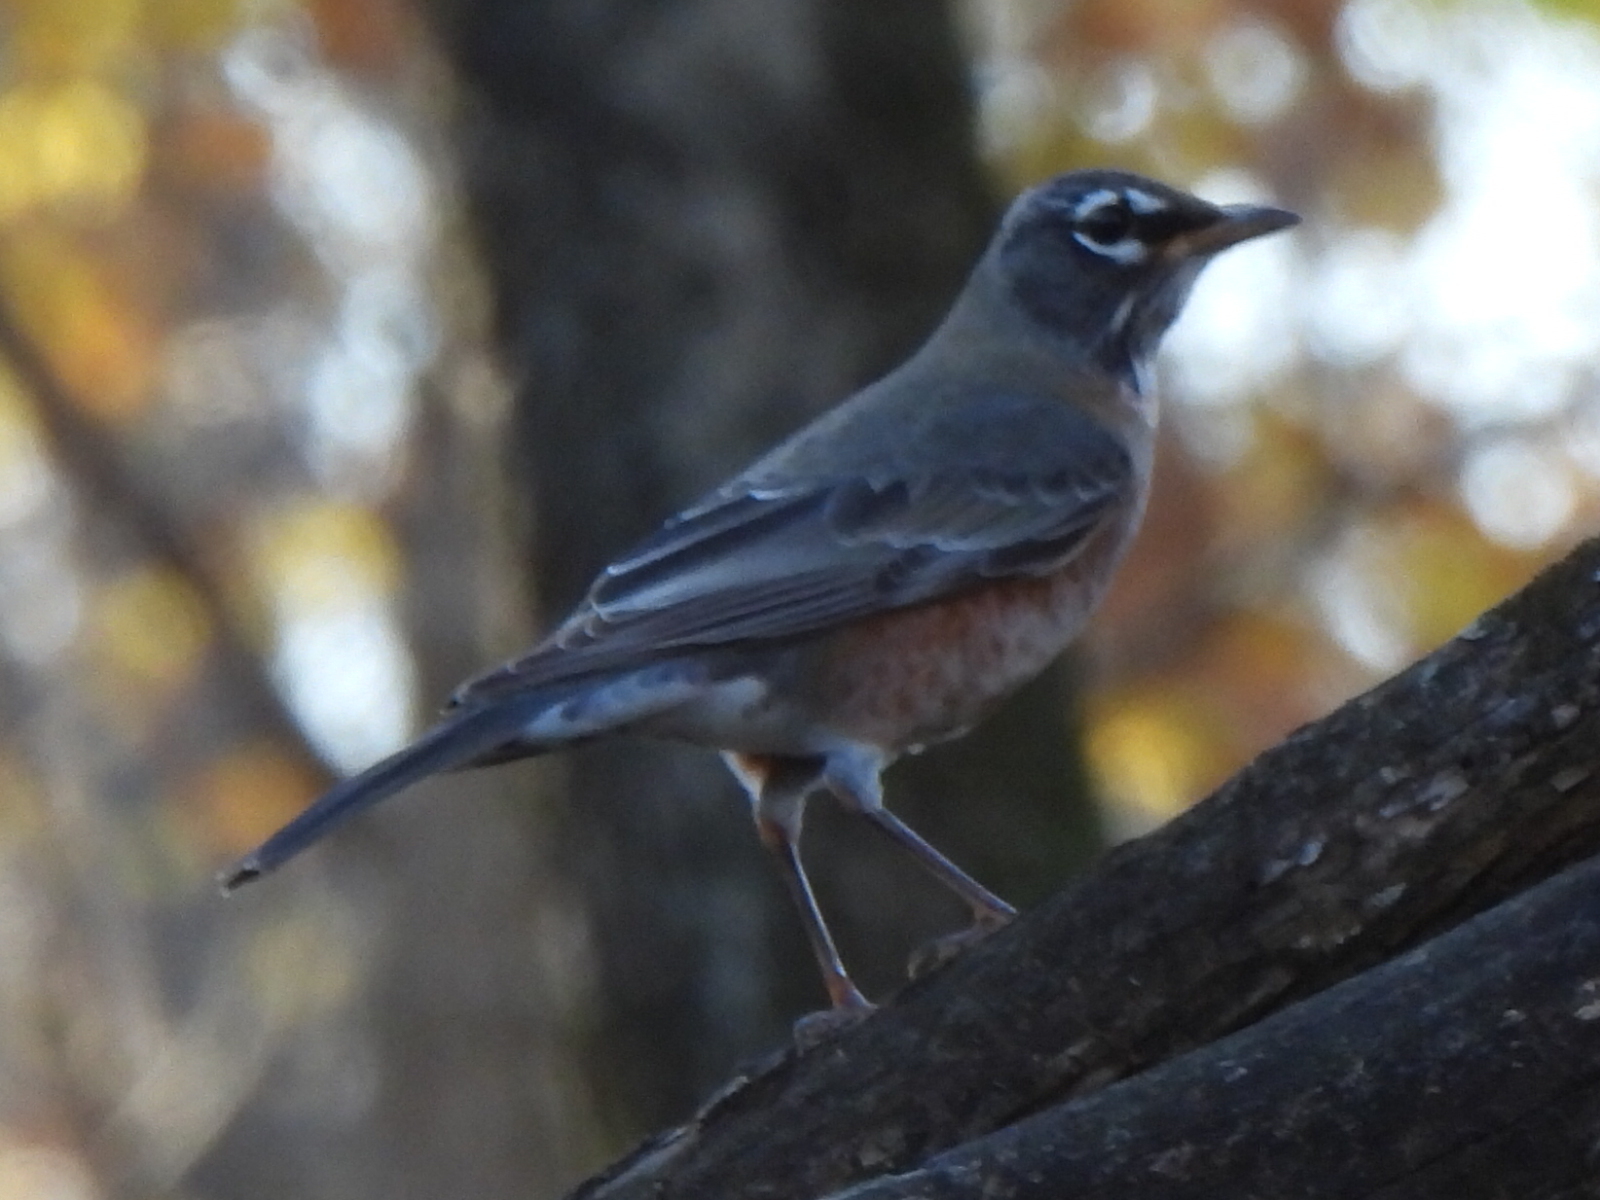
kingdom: Animalia
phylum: Chordata
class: Aves
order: Passeriformes
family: Turdidae
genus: Turdus
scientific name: Turdus migratorius
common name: American robin
